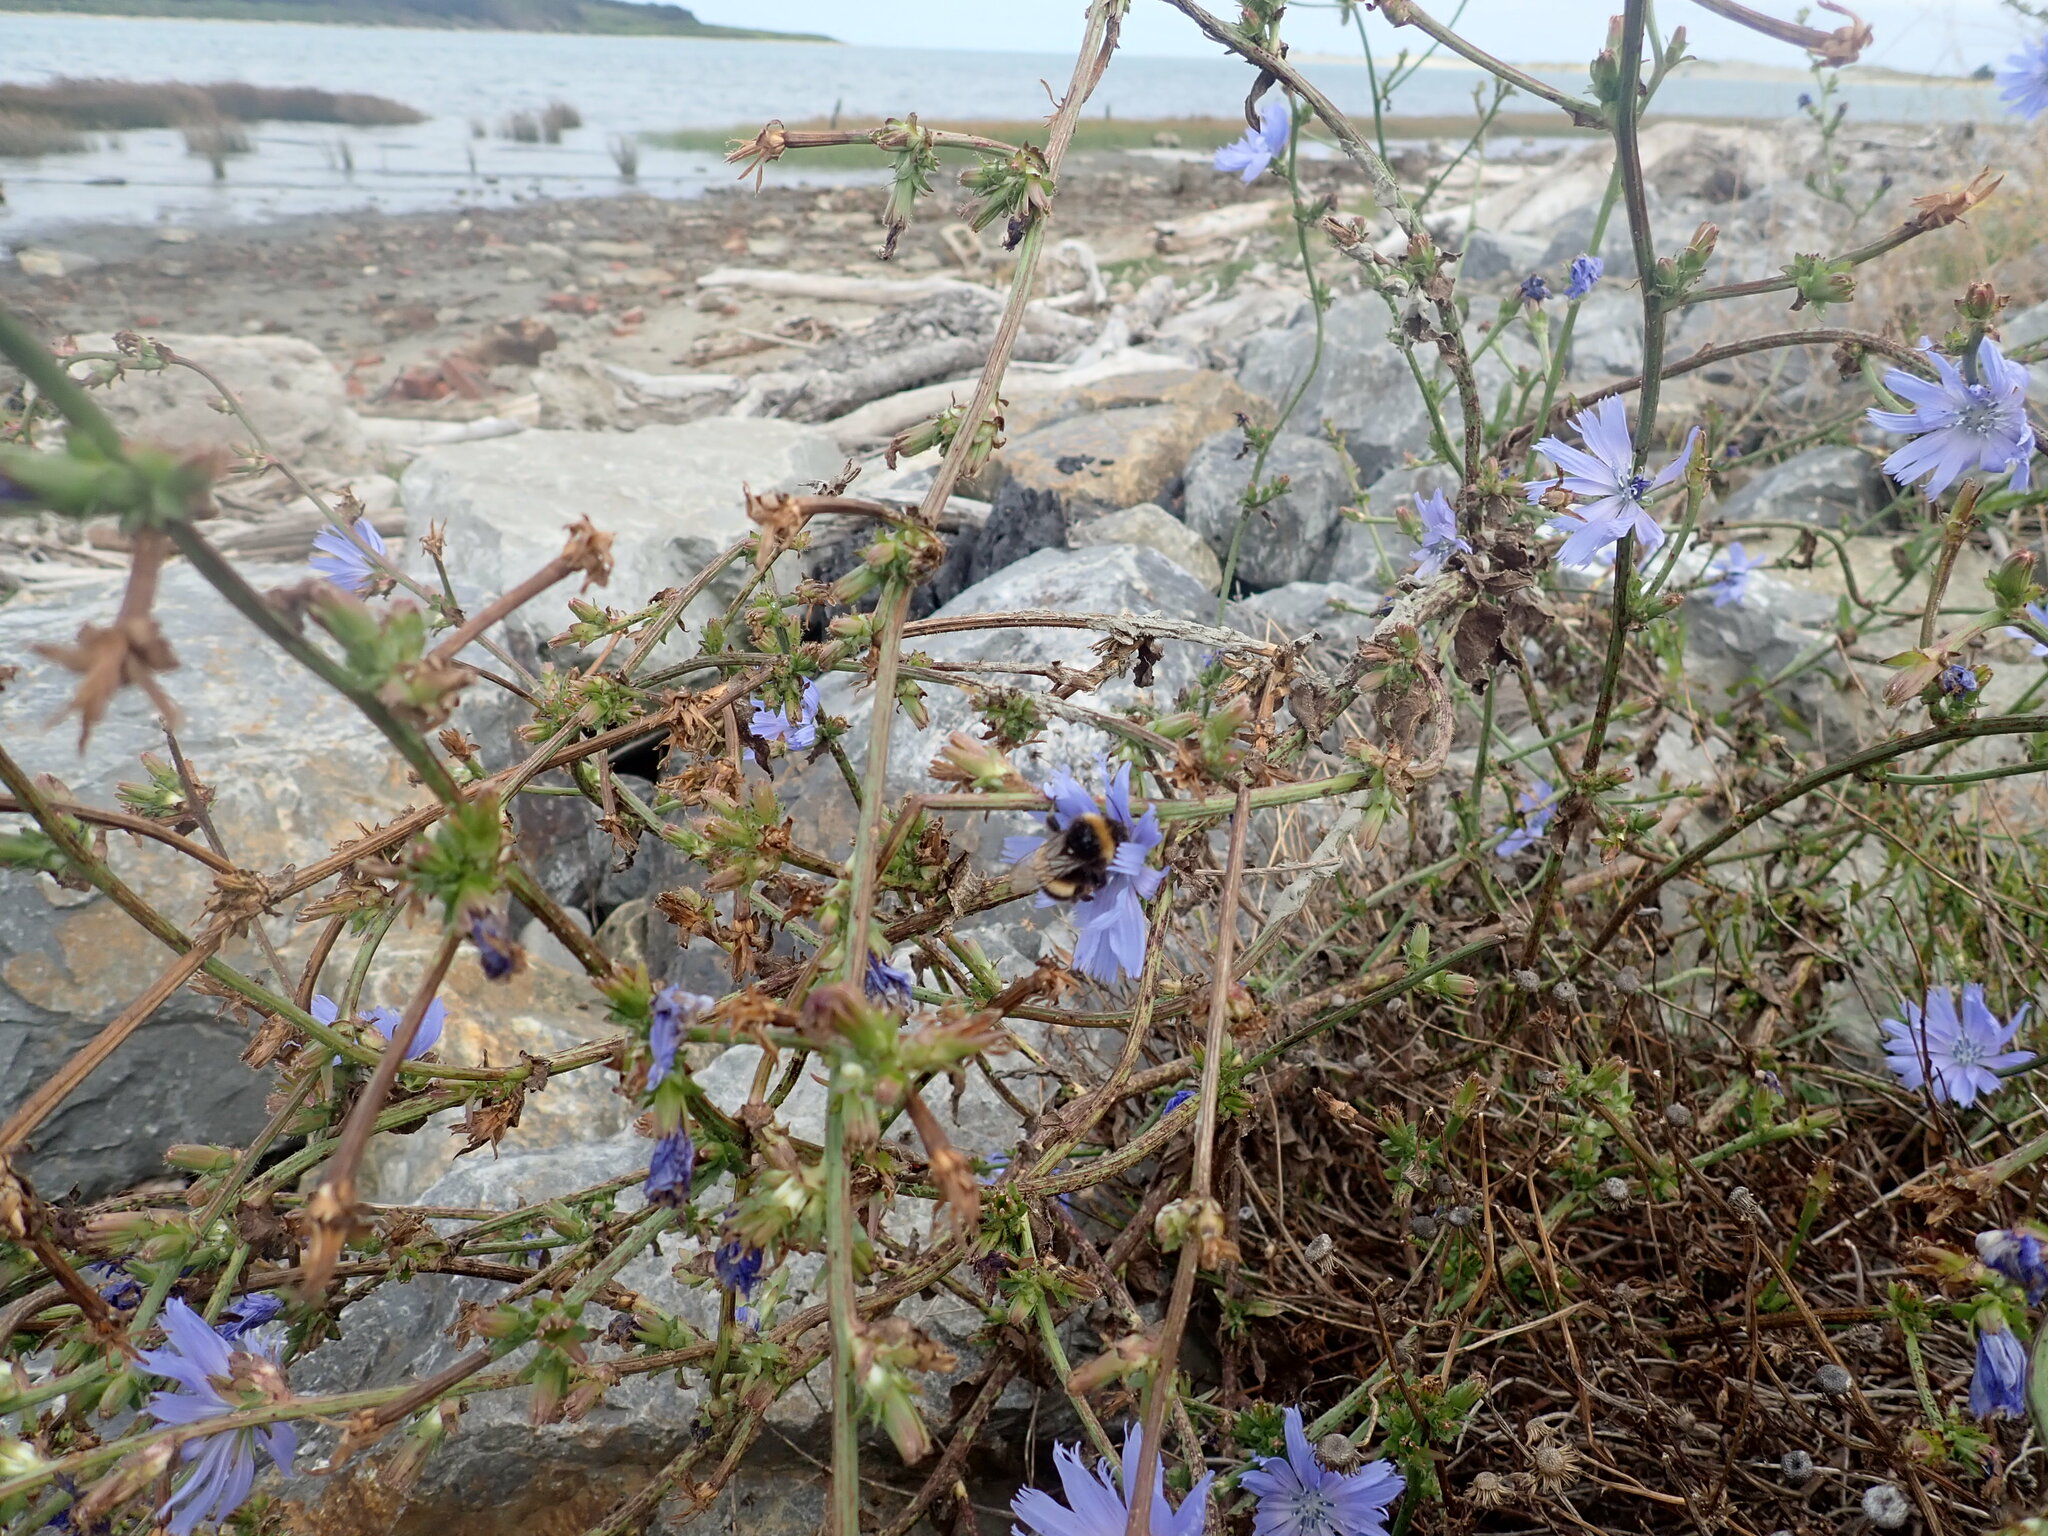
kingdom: Animalia
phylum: Arthropoda
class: Insecta
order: Hymenoptera
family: Apidae
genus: Bombus
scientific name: Bombus terrestris
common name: Buff-tailed bumblebee
